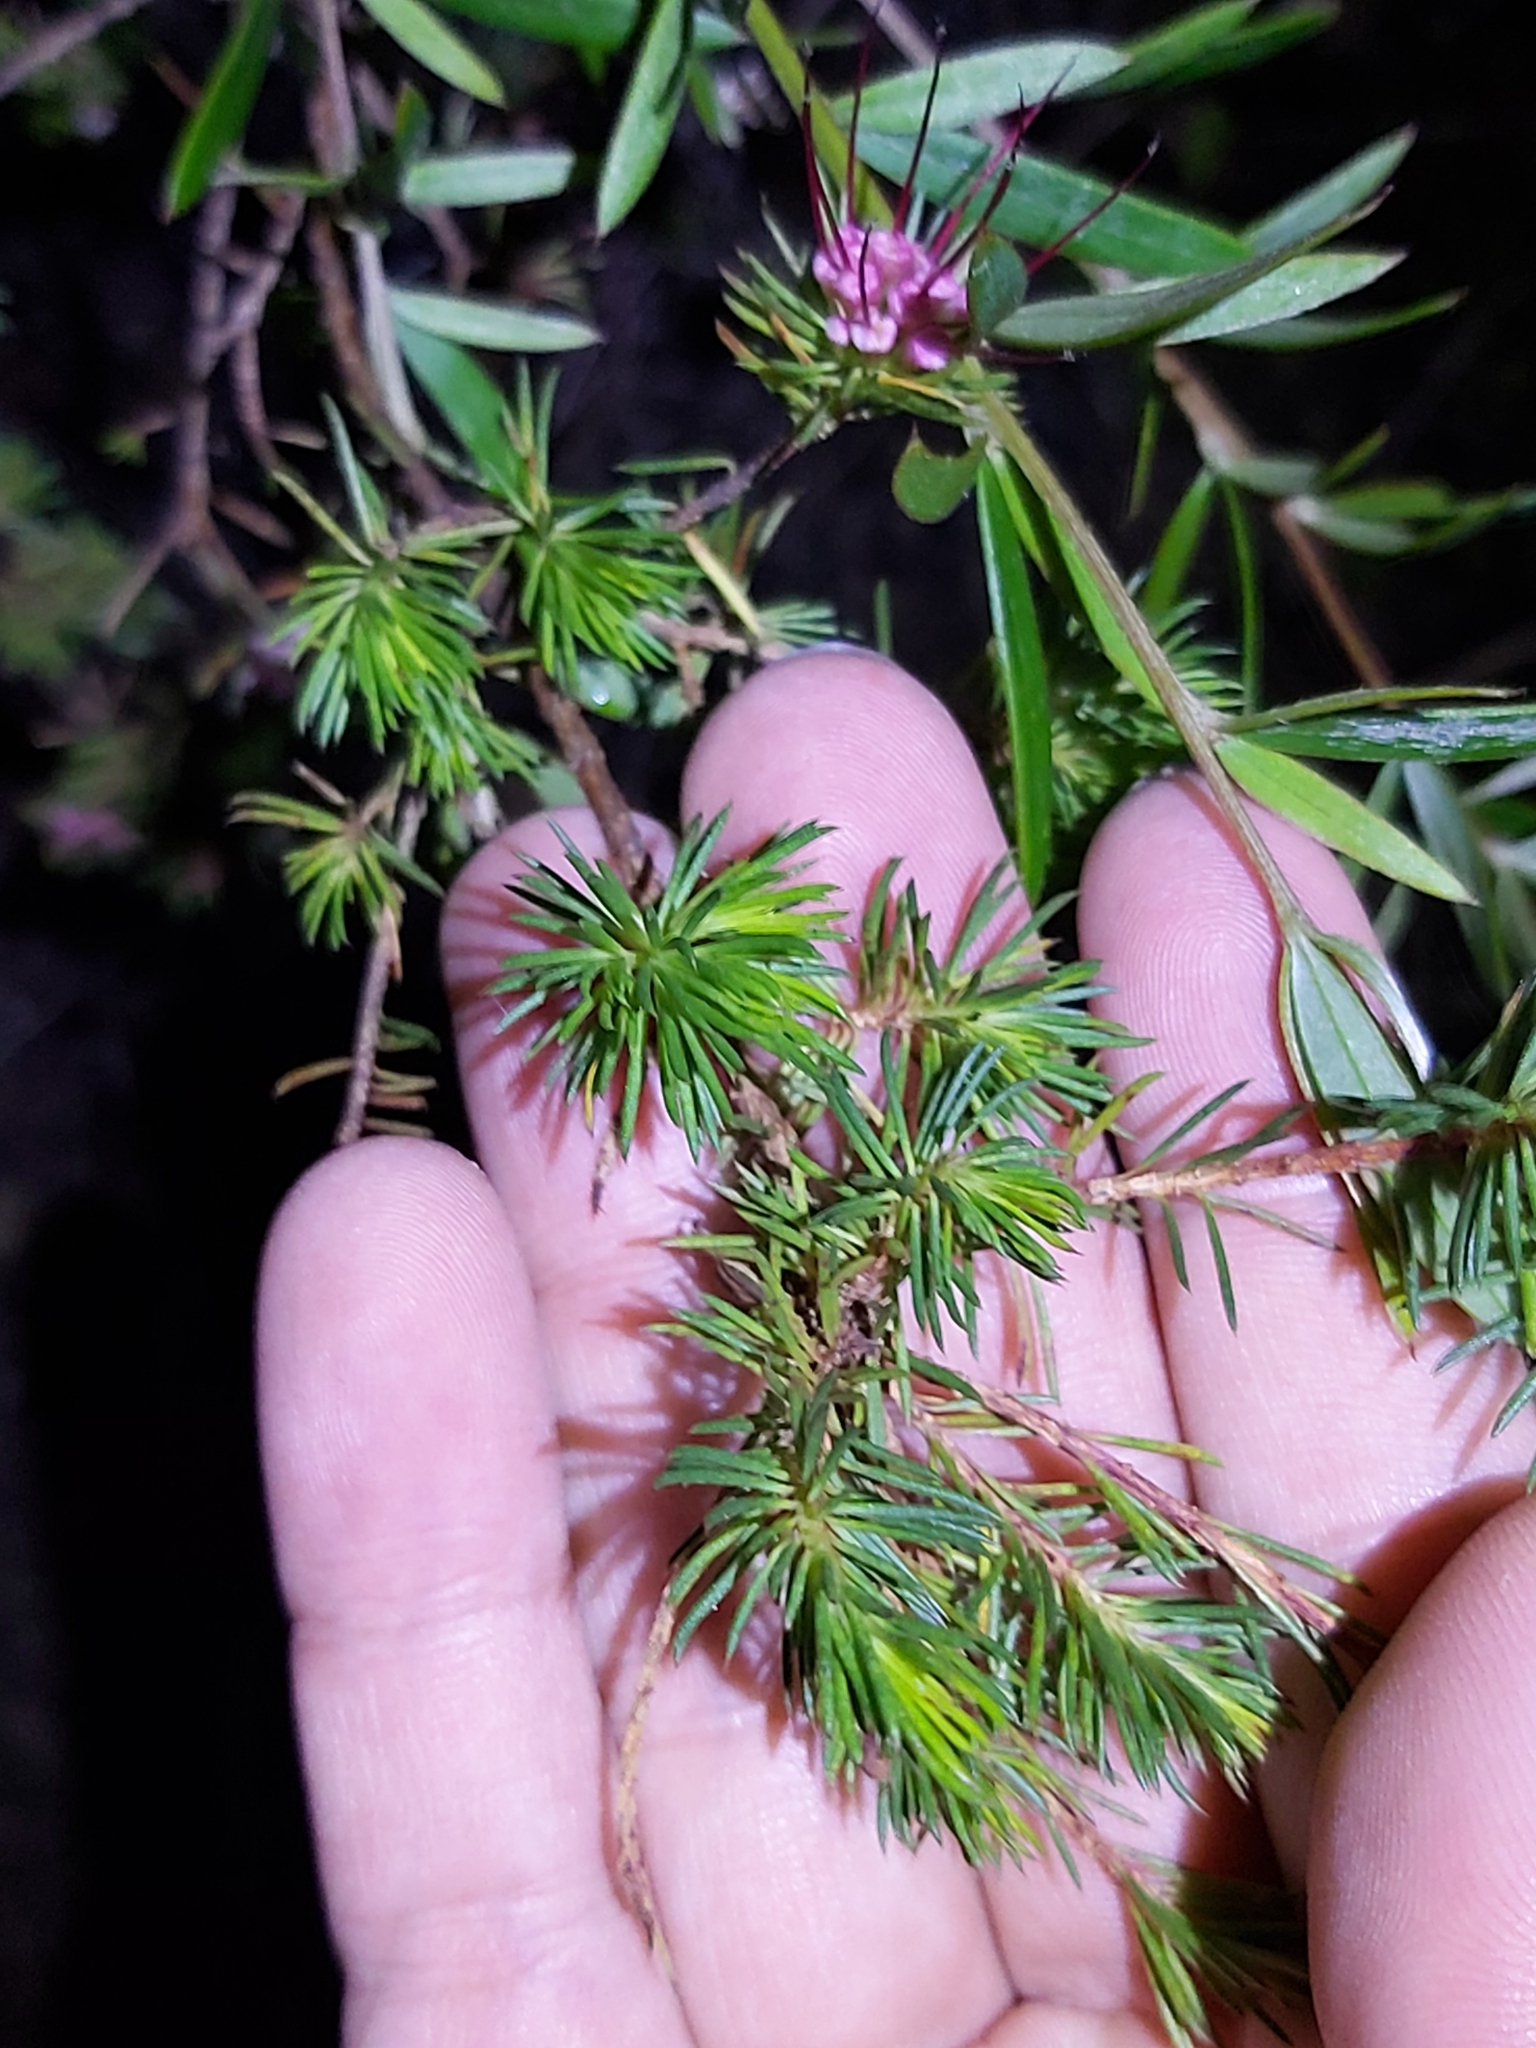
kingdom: Plantae
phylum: Tracheophyta
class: Magnoliopsida
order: Myrtales
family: Myrtaceae
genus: Darwinia
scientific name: Darwinia fascicularis
